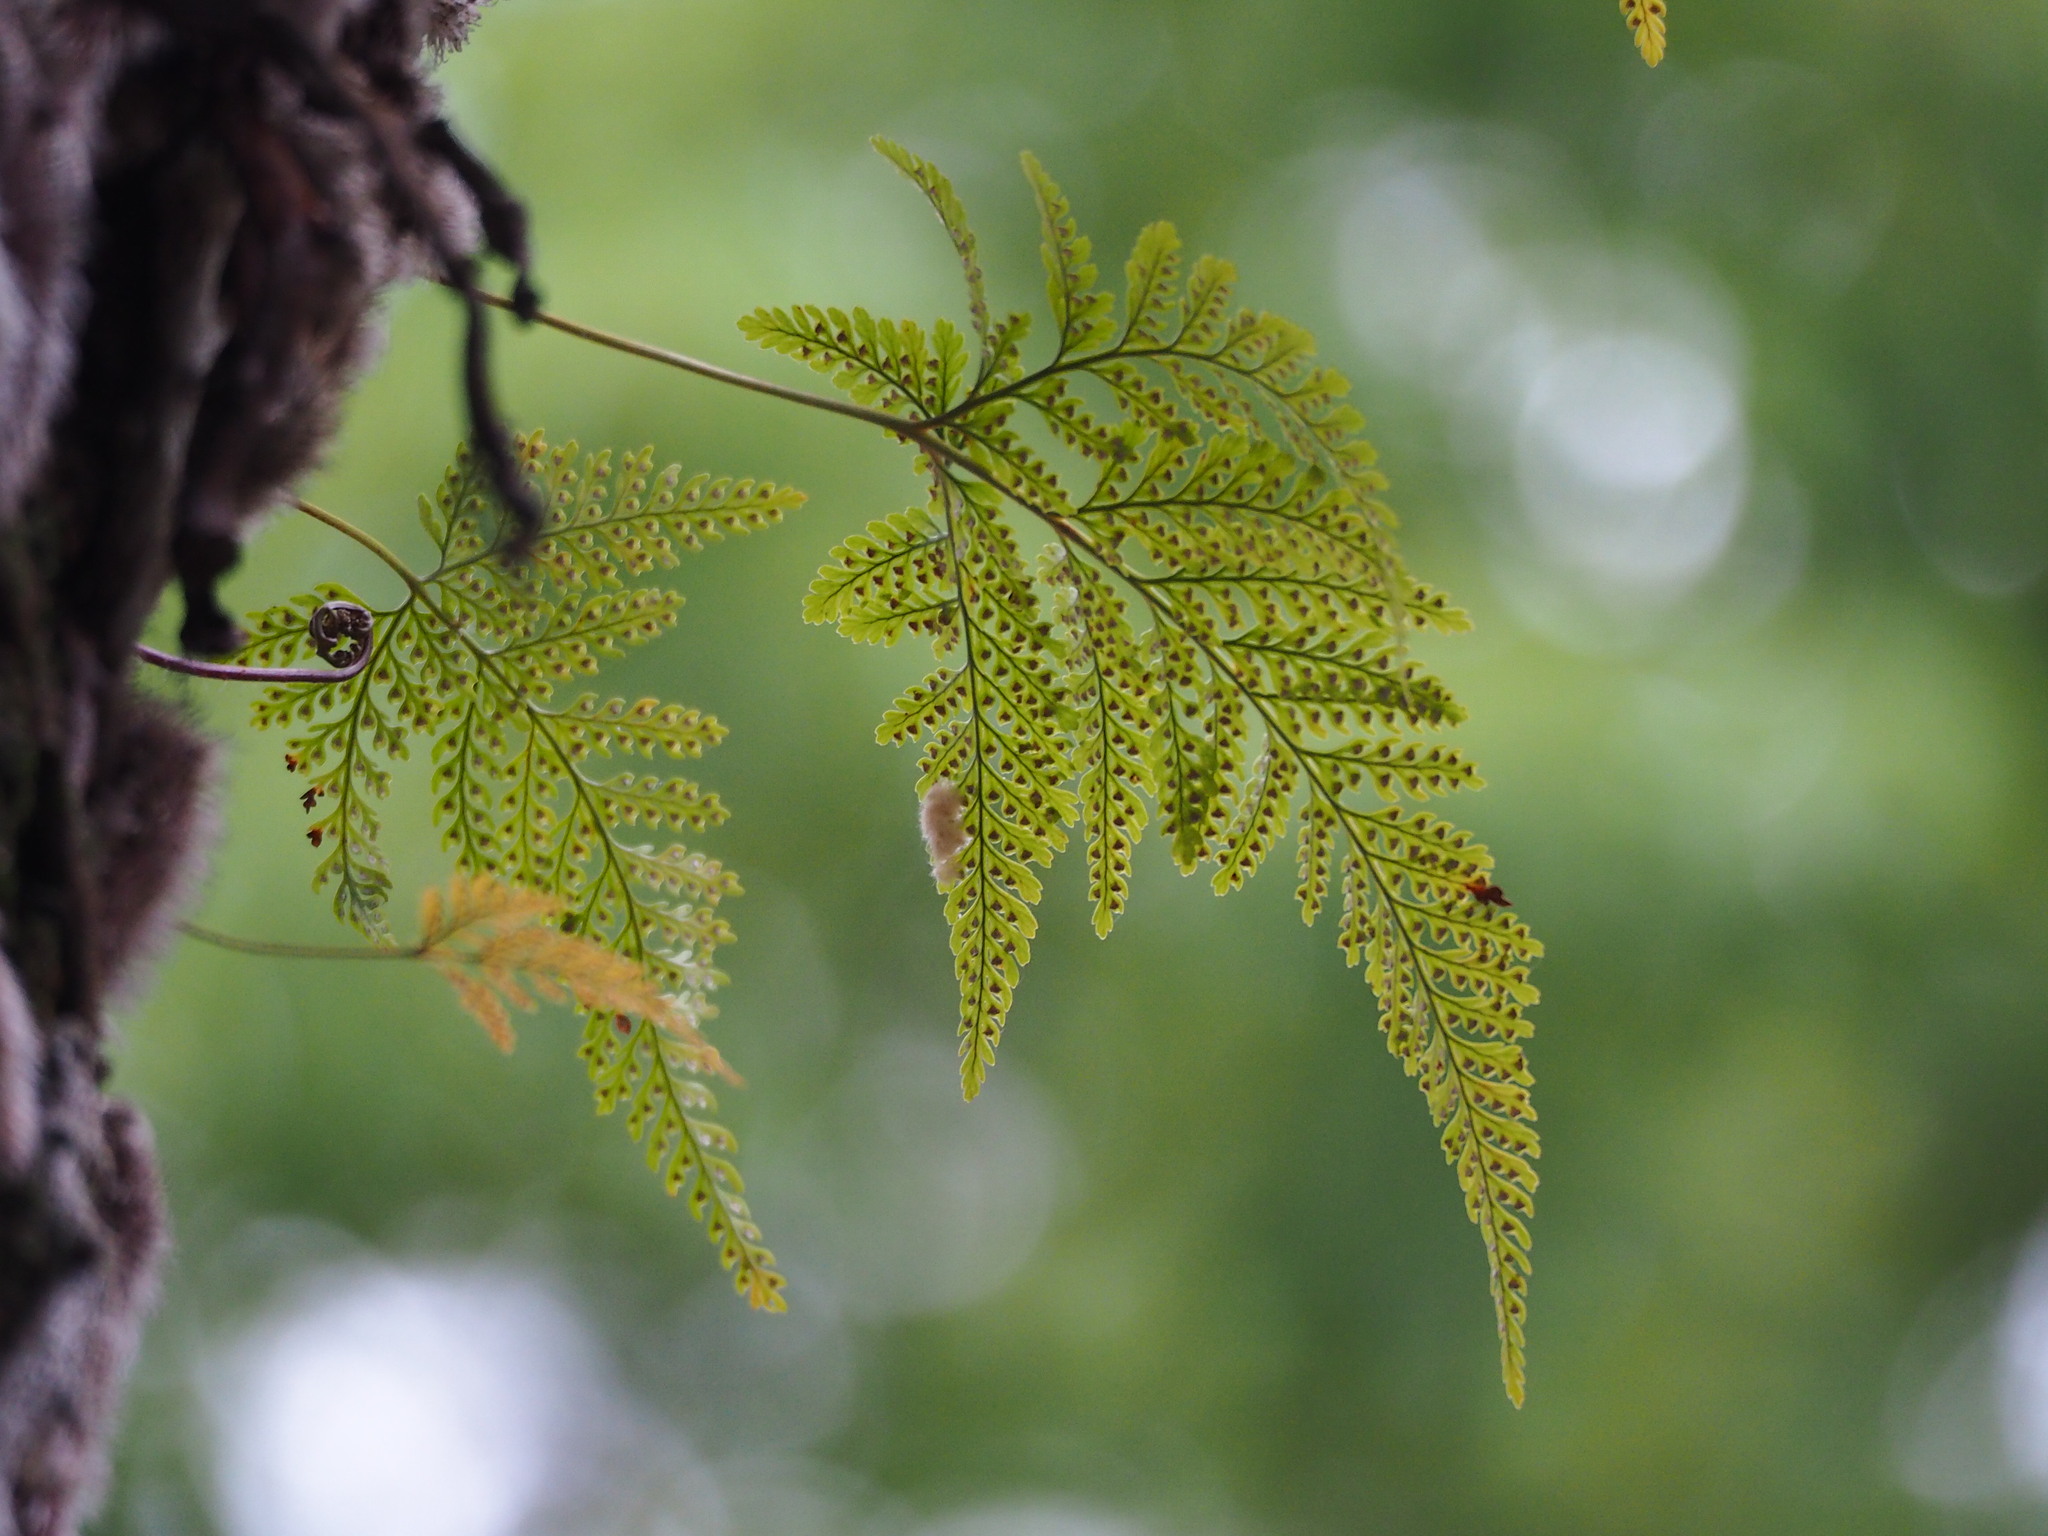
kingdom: Plantae
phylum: Tracheophyta
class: Polypodiopsida
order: Polypodiales
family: Davalliaceae
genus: Davallia
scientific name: Davallia griffithiana
